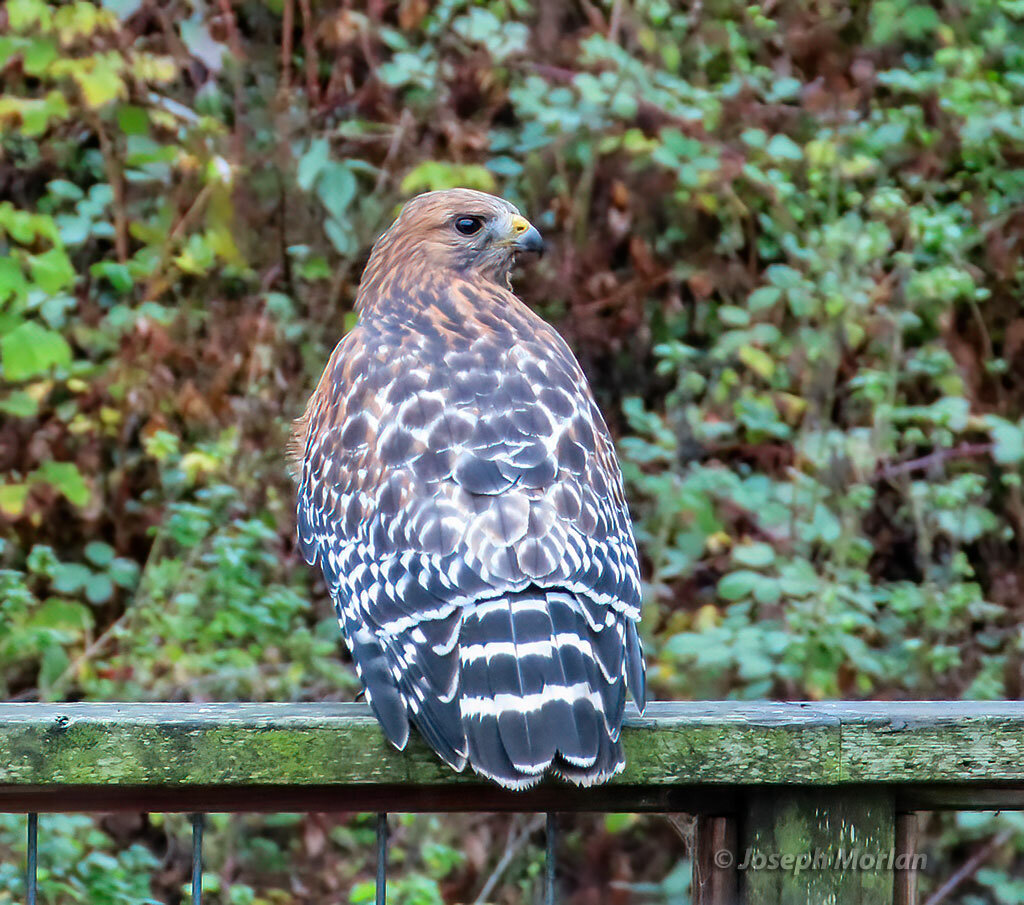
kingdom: Animalia
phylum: Chordata
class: Aves
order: Accipitriformes
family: Accipitridae
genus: Buteo
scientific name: Buteo lineatus
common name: Red-shouldered hawk
